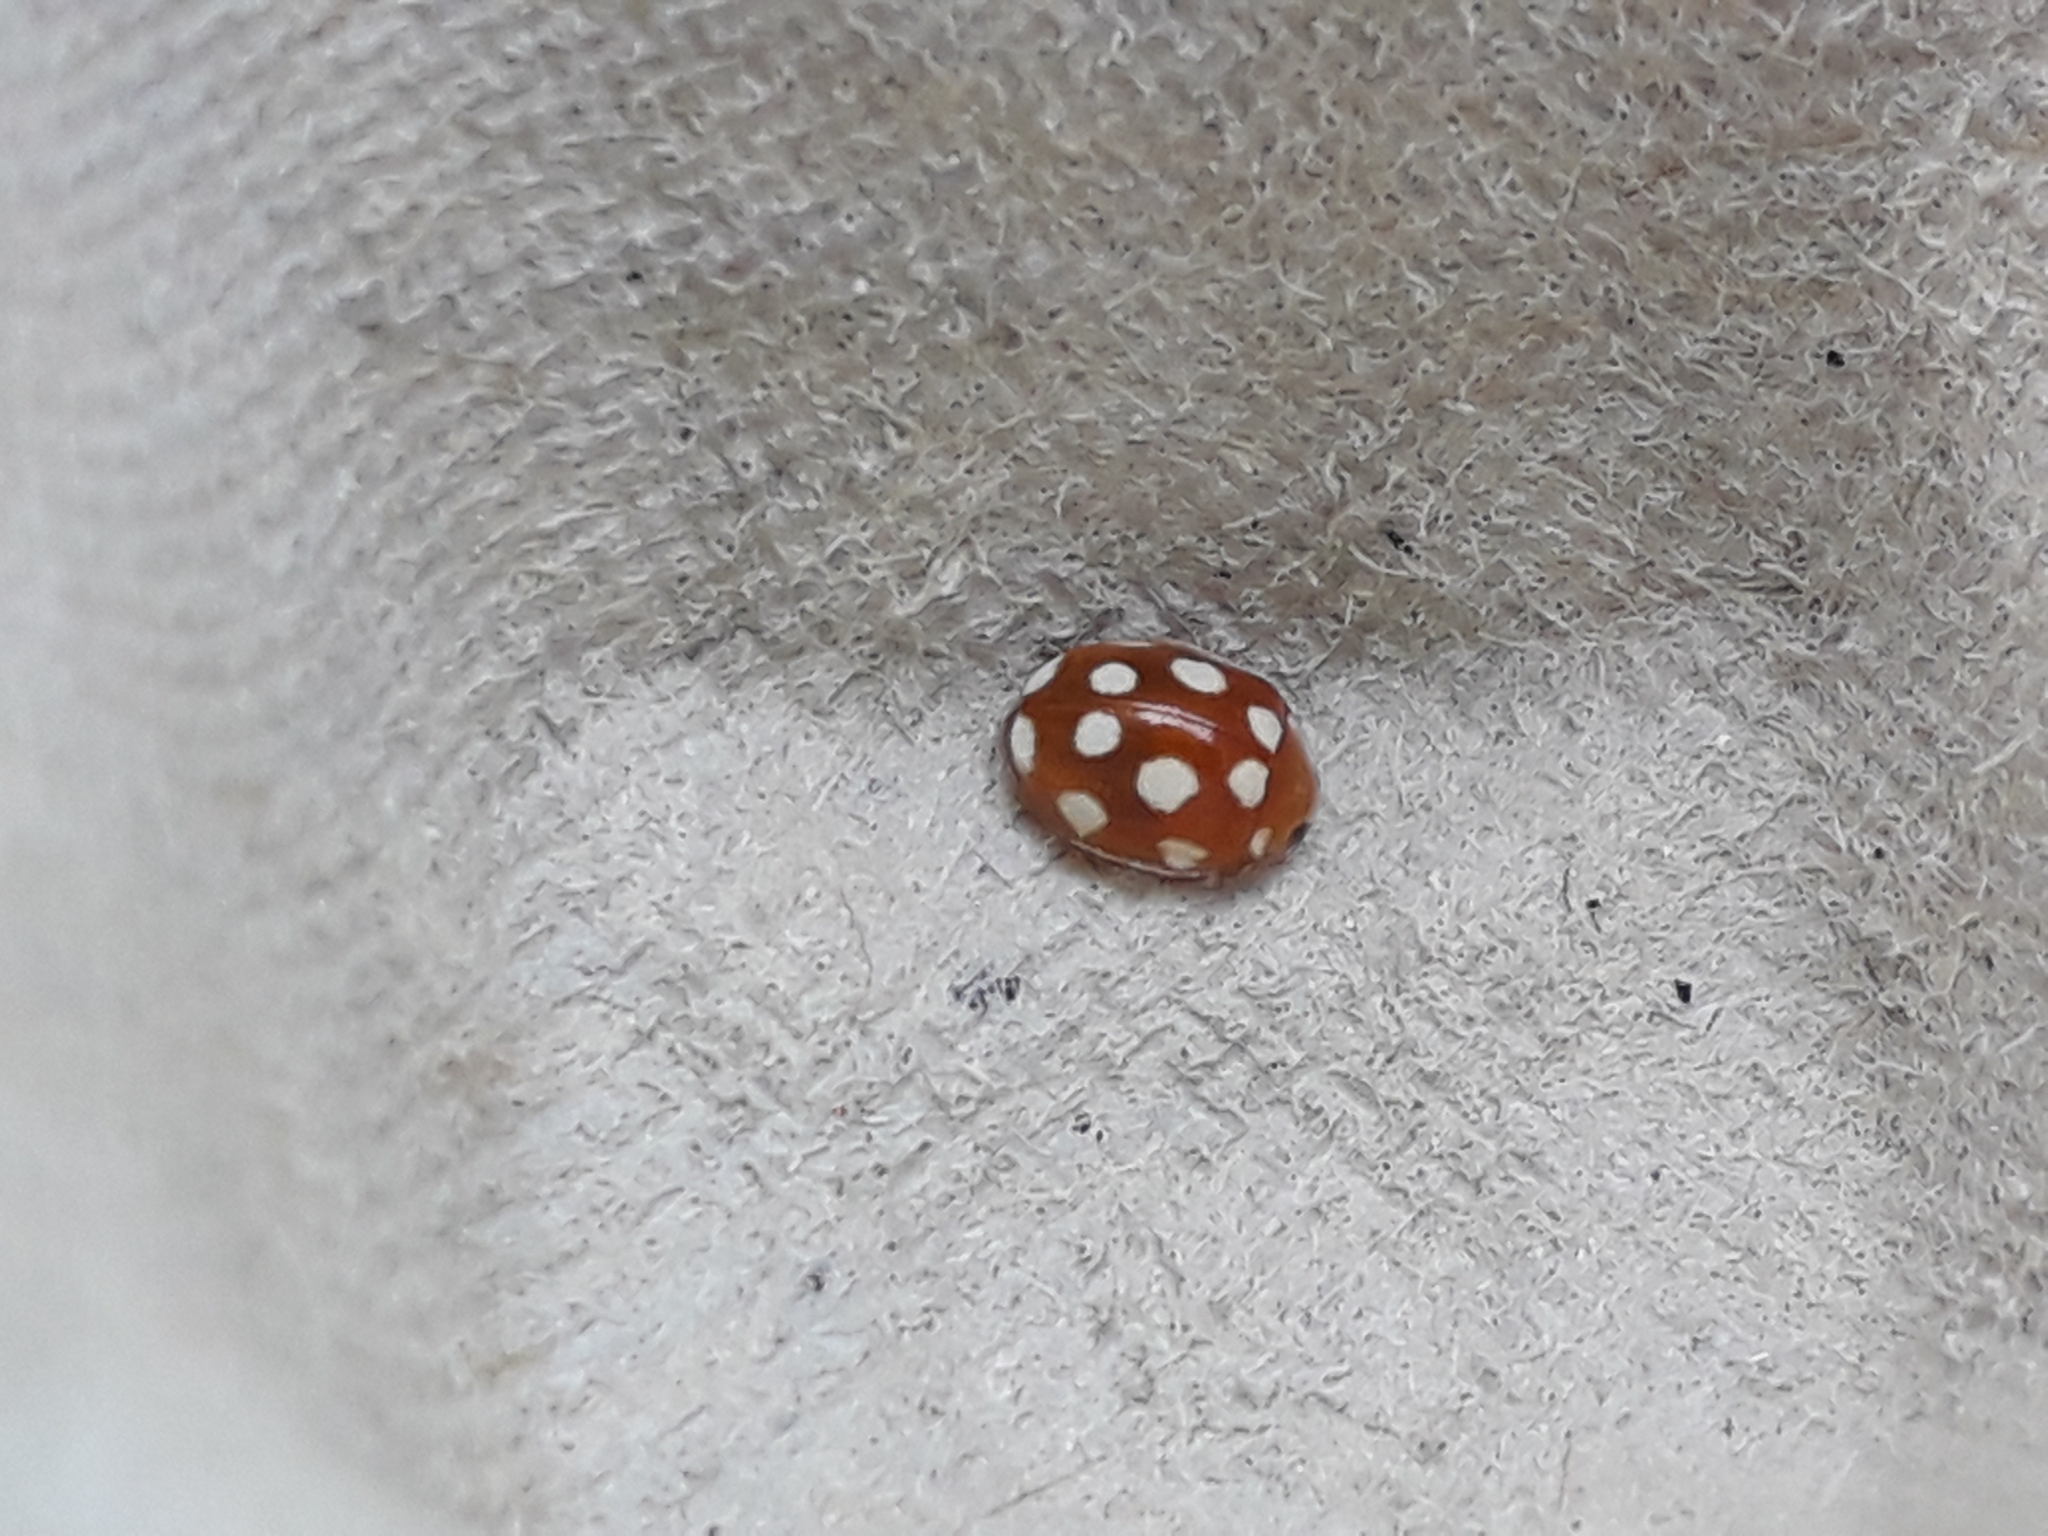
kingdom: Animalia
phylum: Arthropoda
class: Insecta
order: Coleoptera
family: Coccinellidae
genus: Vibidia
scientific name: Vibidia duodecimguttata
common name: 12-spot ladybird
